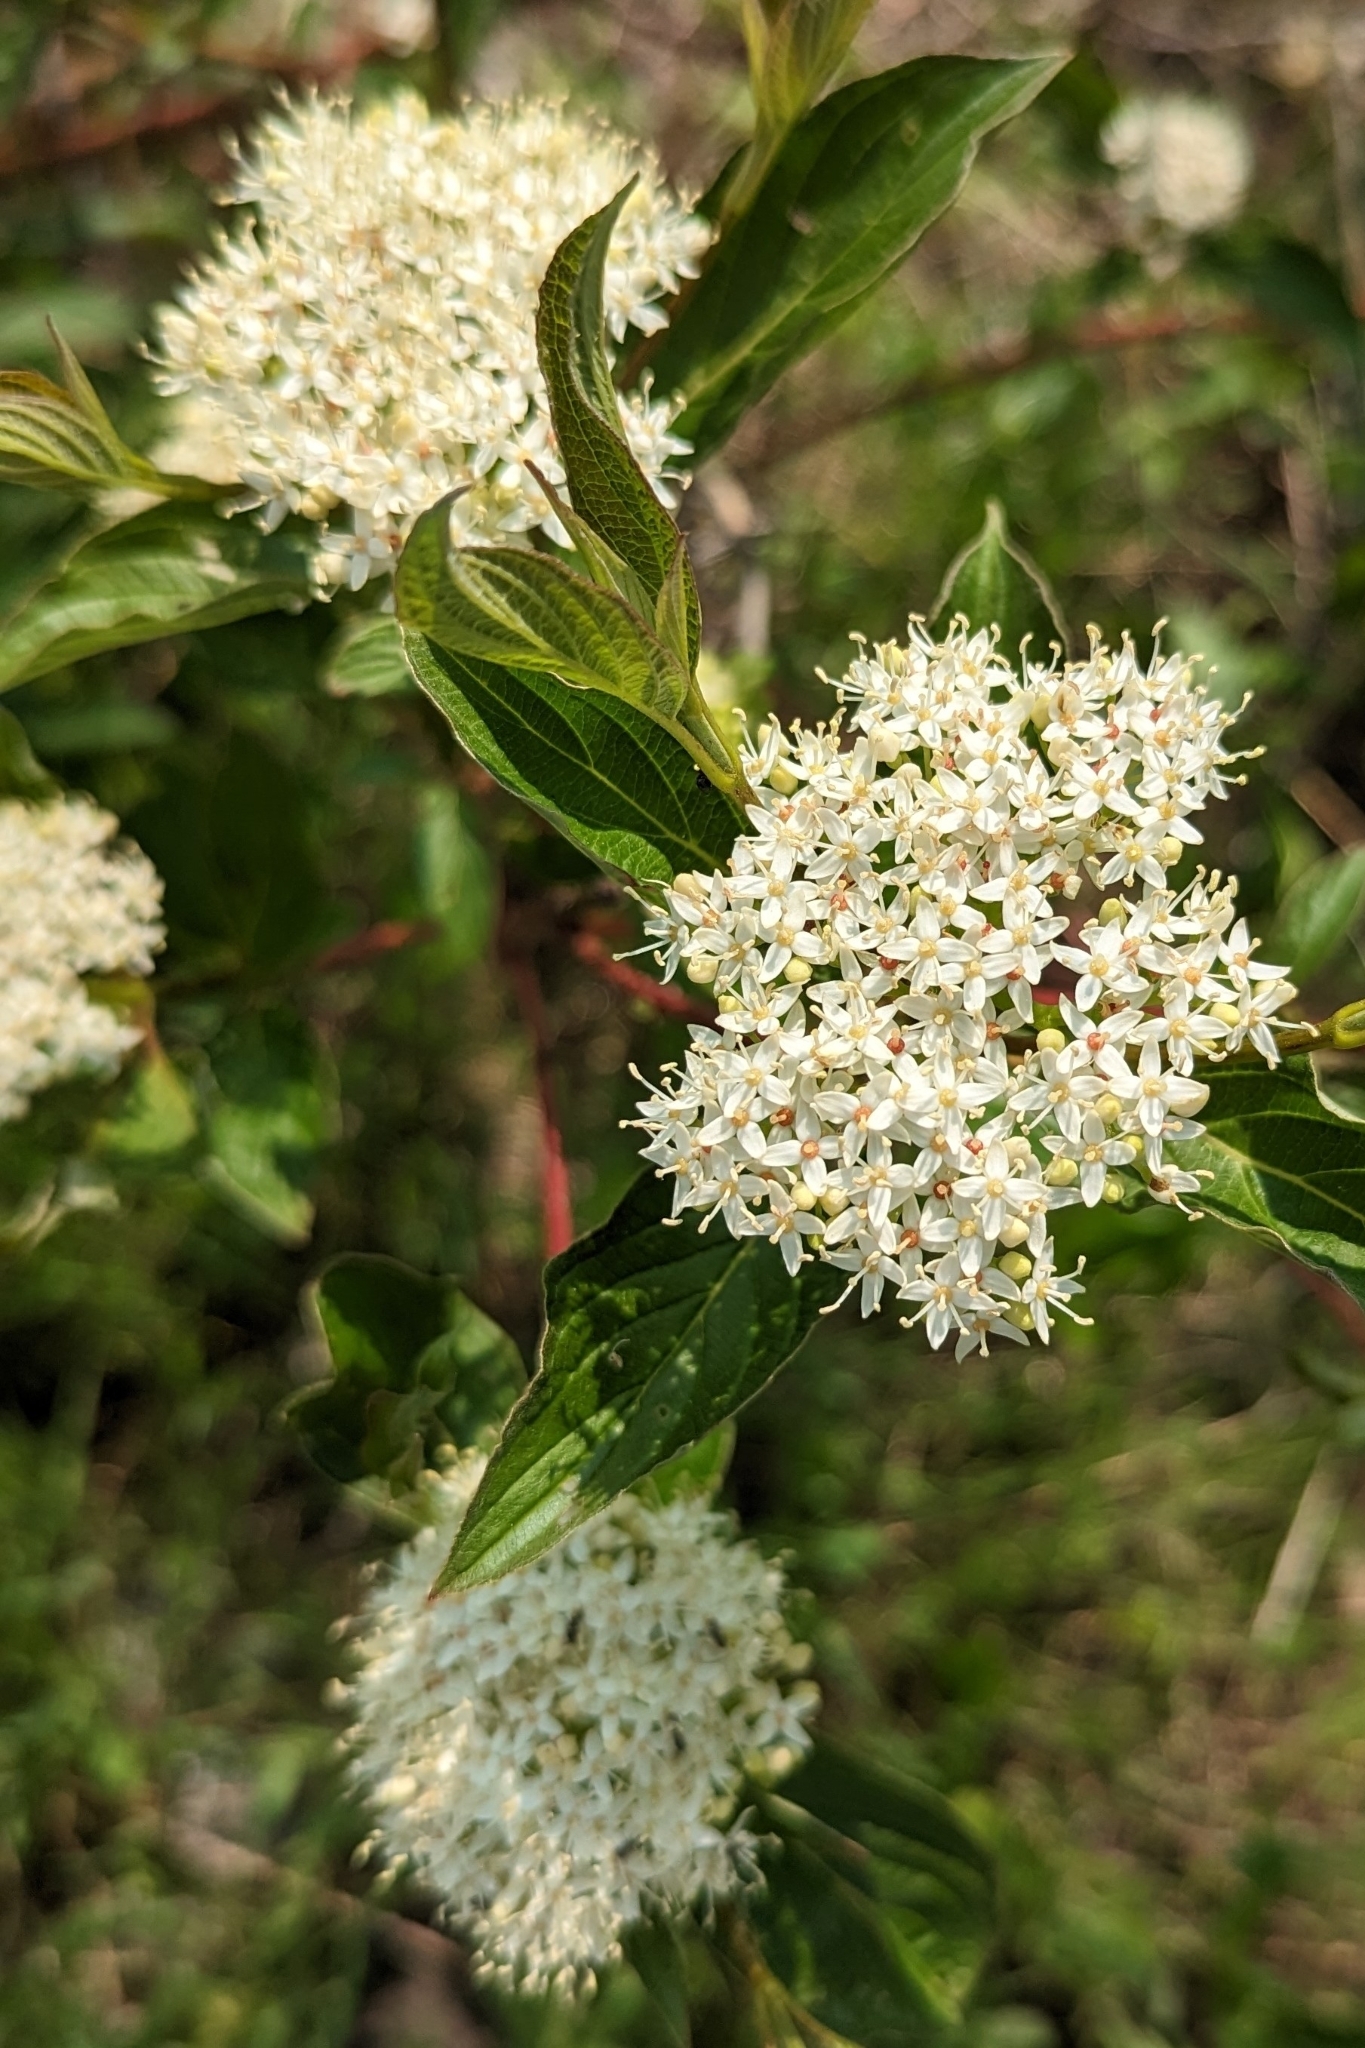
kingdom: Plantae
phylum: Tracheophyta
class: Magnoliopsida
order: Cornales
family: Cornaceae
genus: Cornus
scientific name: Cornus sericea
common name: Red-osier dogwood
